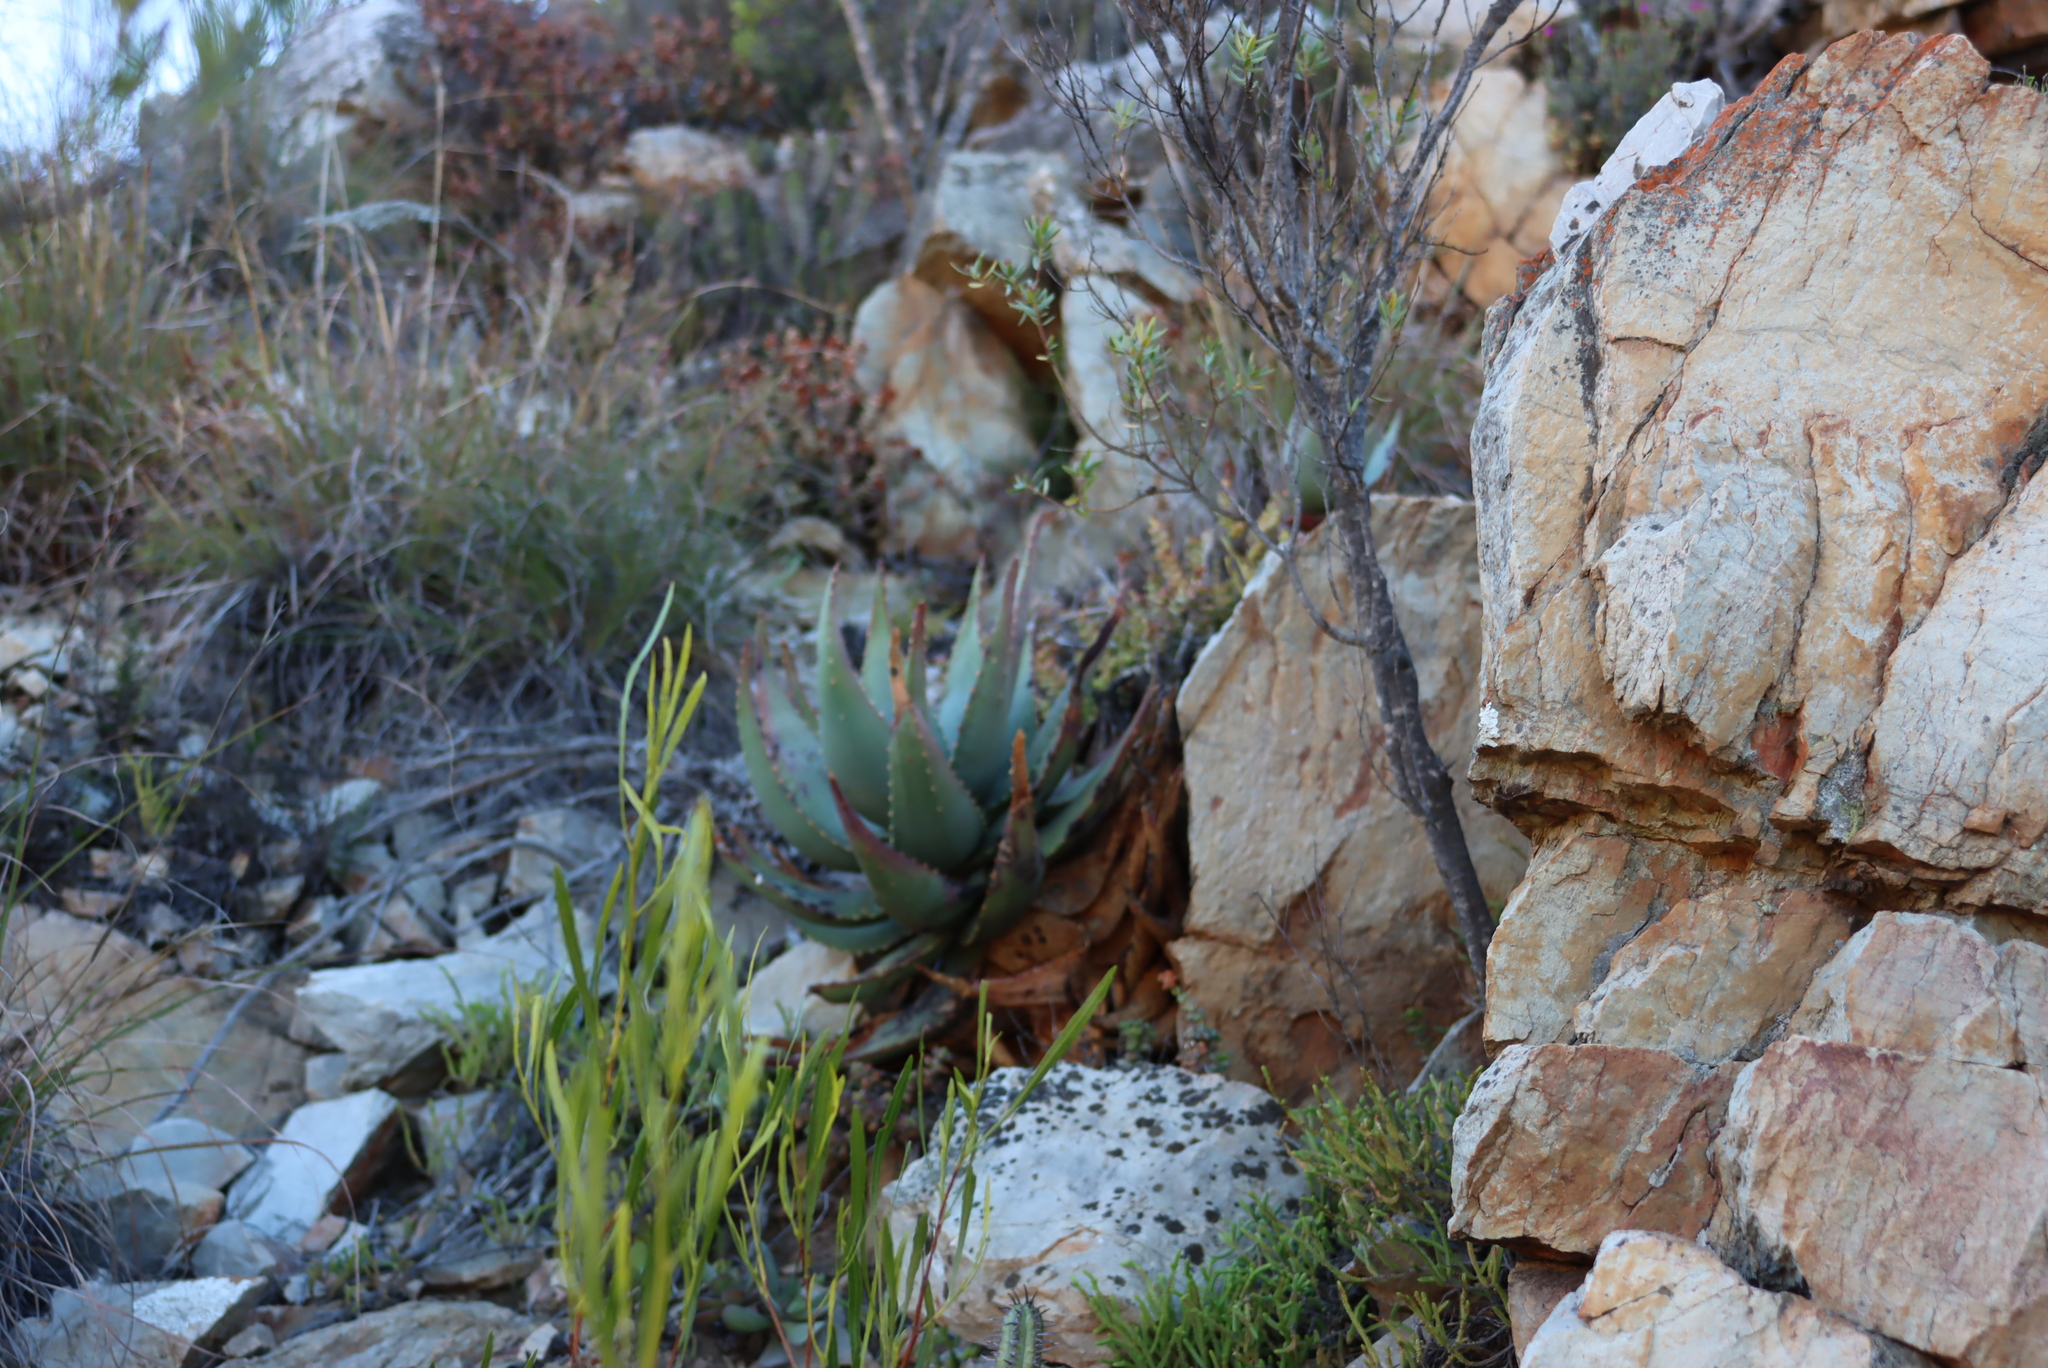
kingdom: Plantae
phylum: Tracheophyta
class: Liliopsida
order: Asparagales
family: Asphodelaceae
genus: Aloe
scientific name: Aloe comptonii
